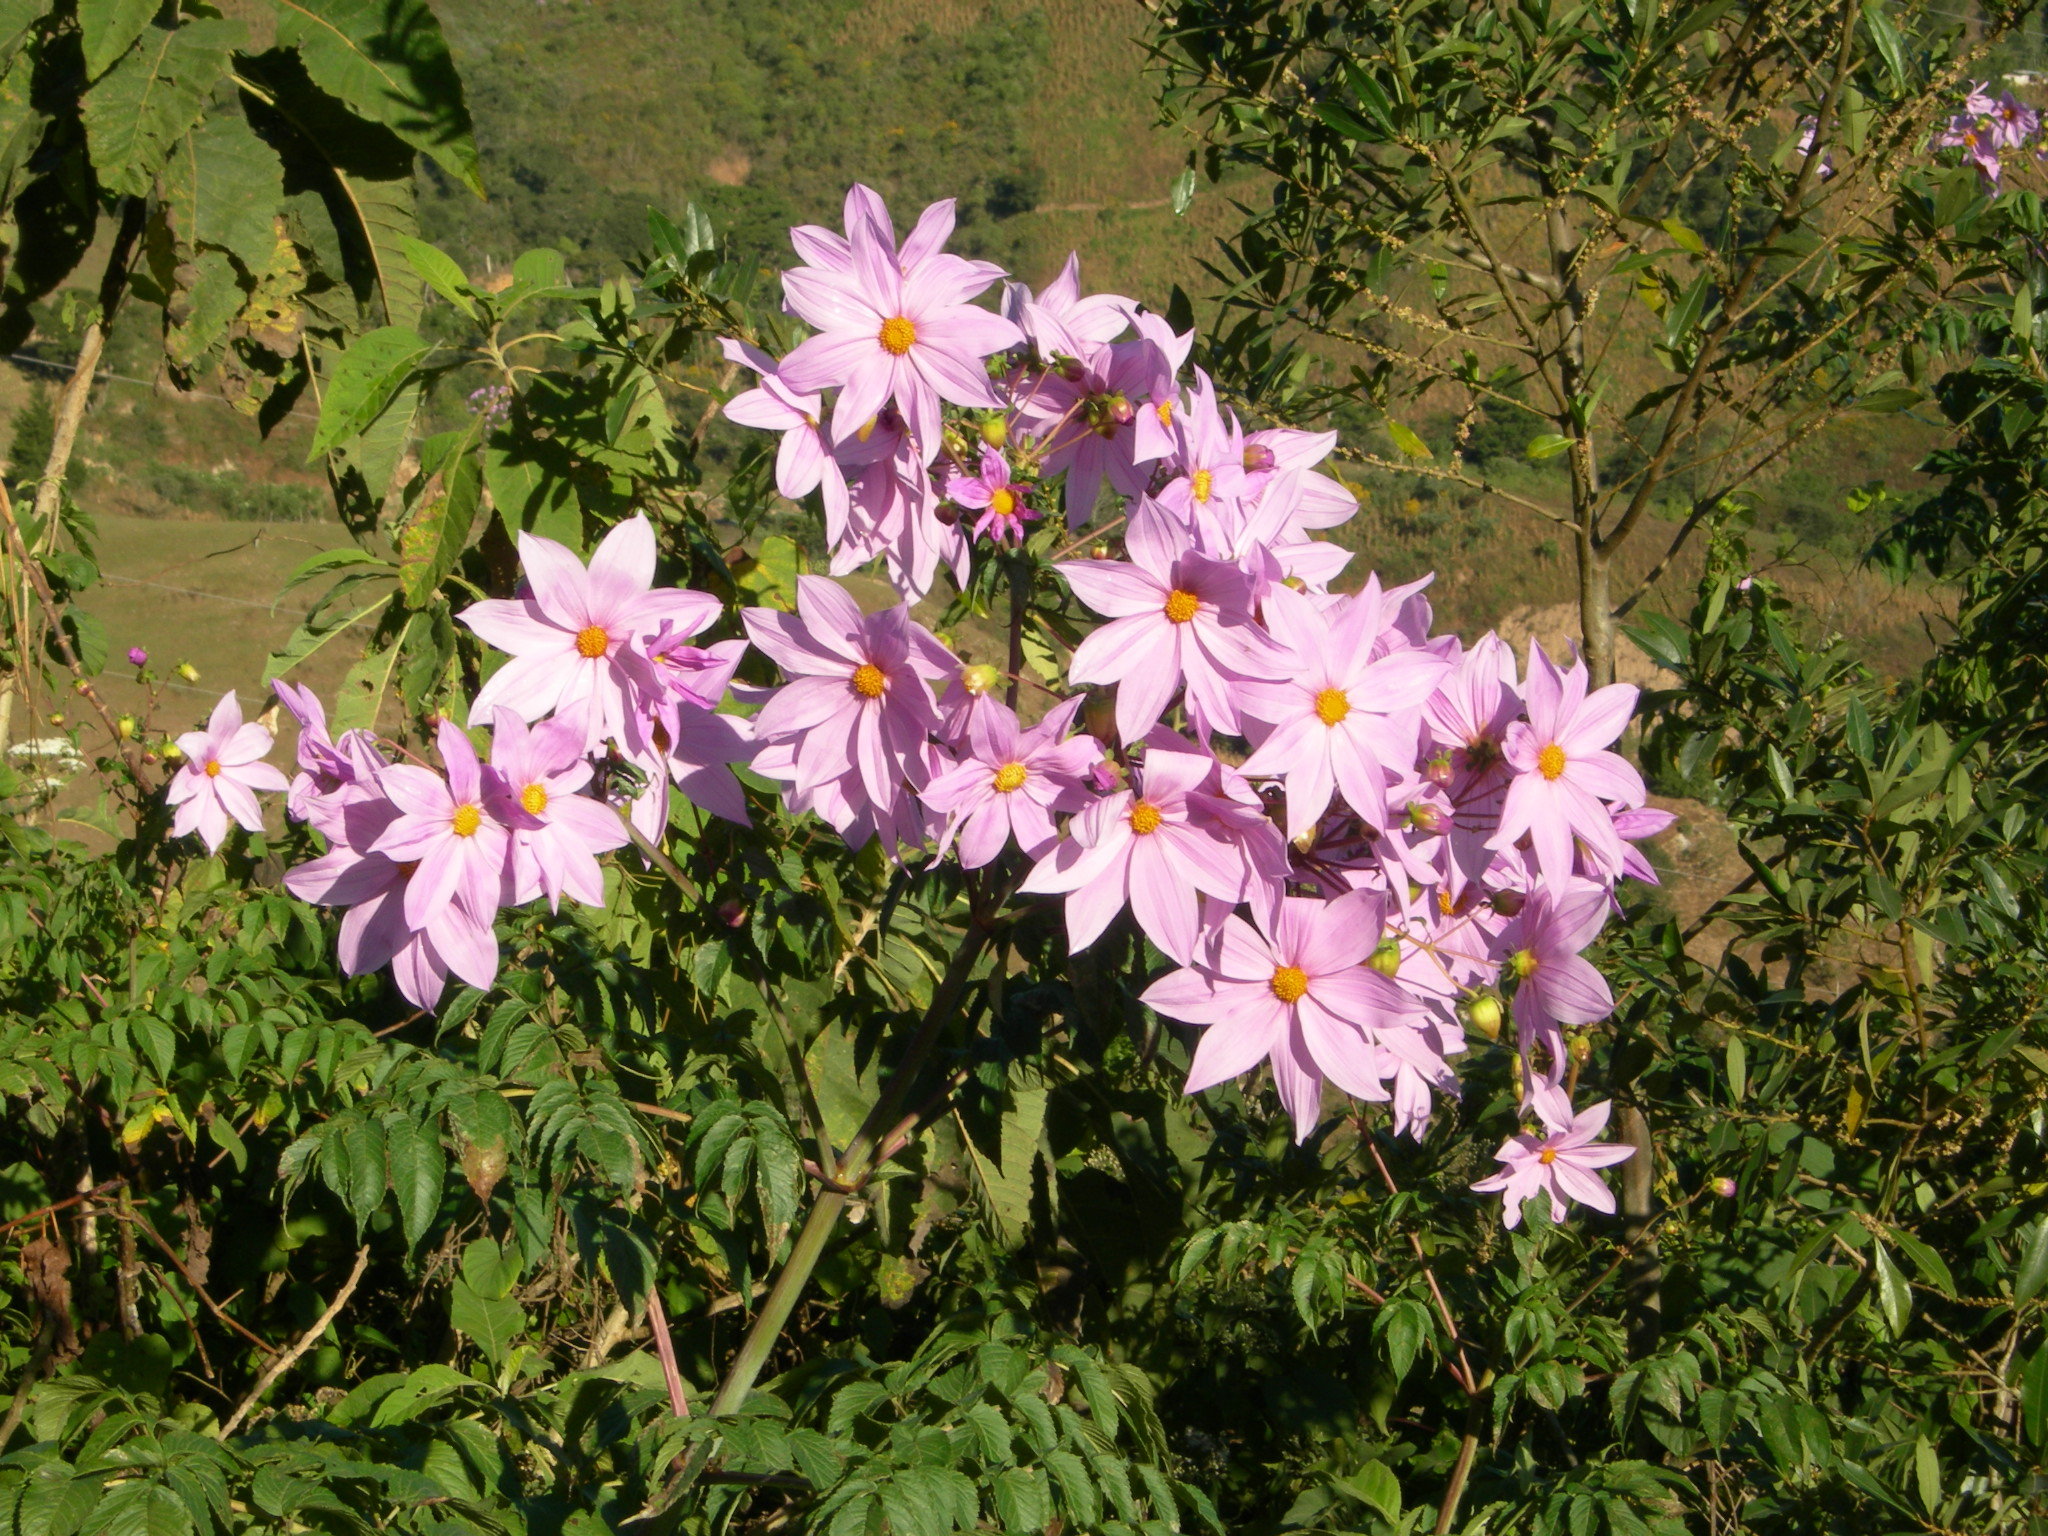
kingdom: Plantae
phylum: Tracheophyta
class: Magnoliopsida
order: Asterales
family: Asteraceae
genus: Dahlia
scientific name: Dahlia imperialis
